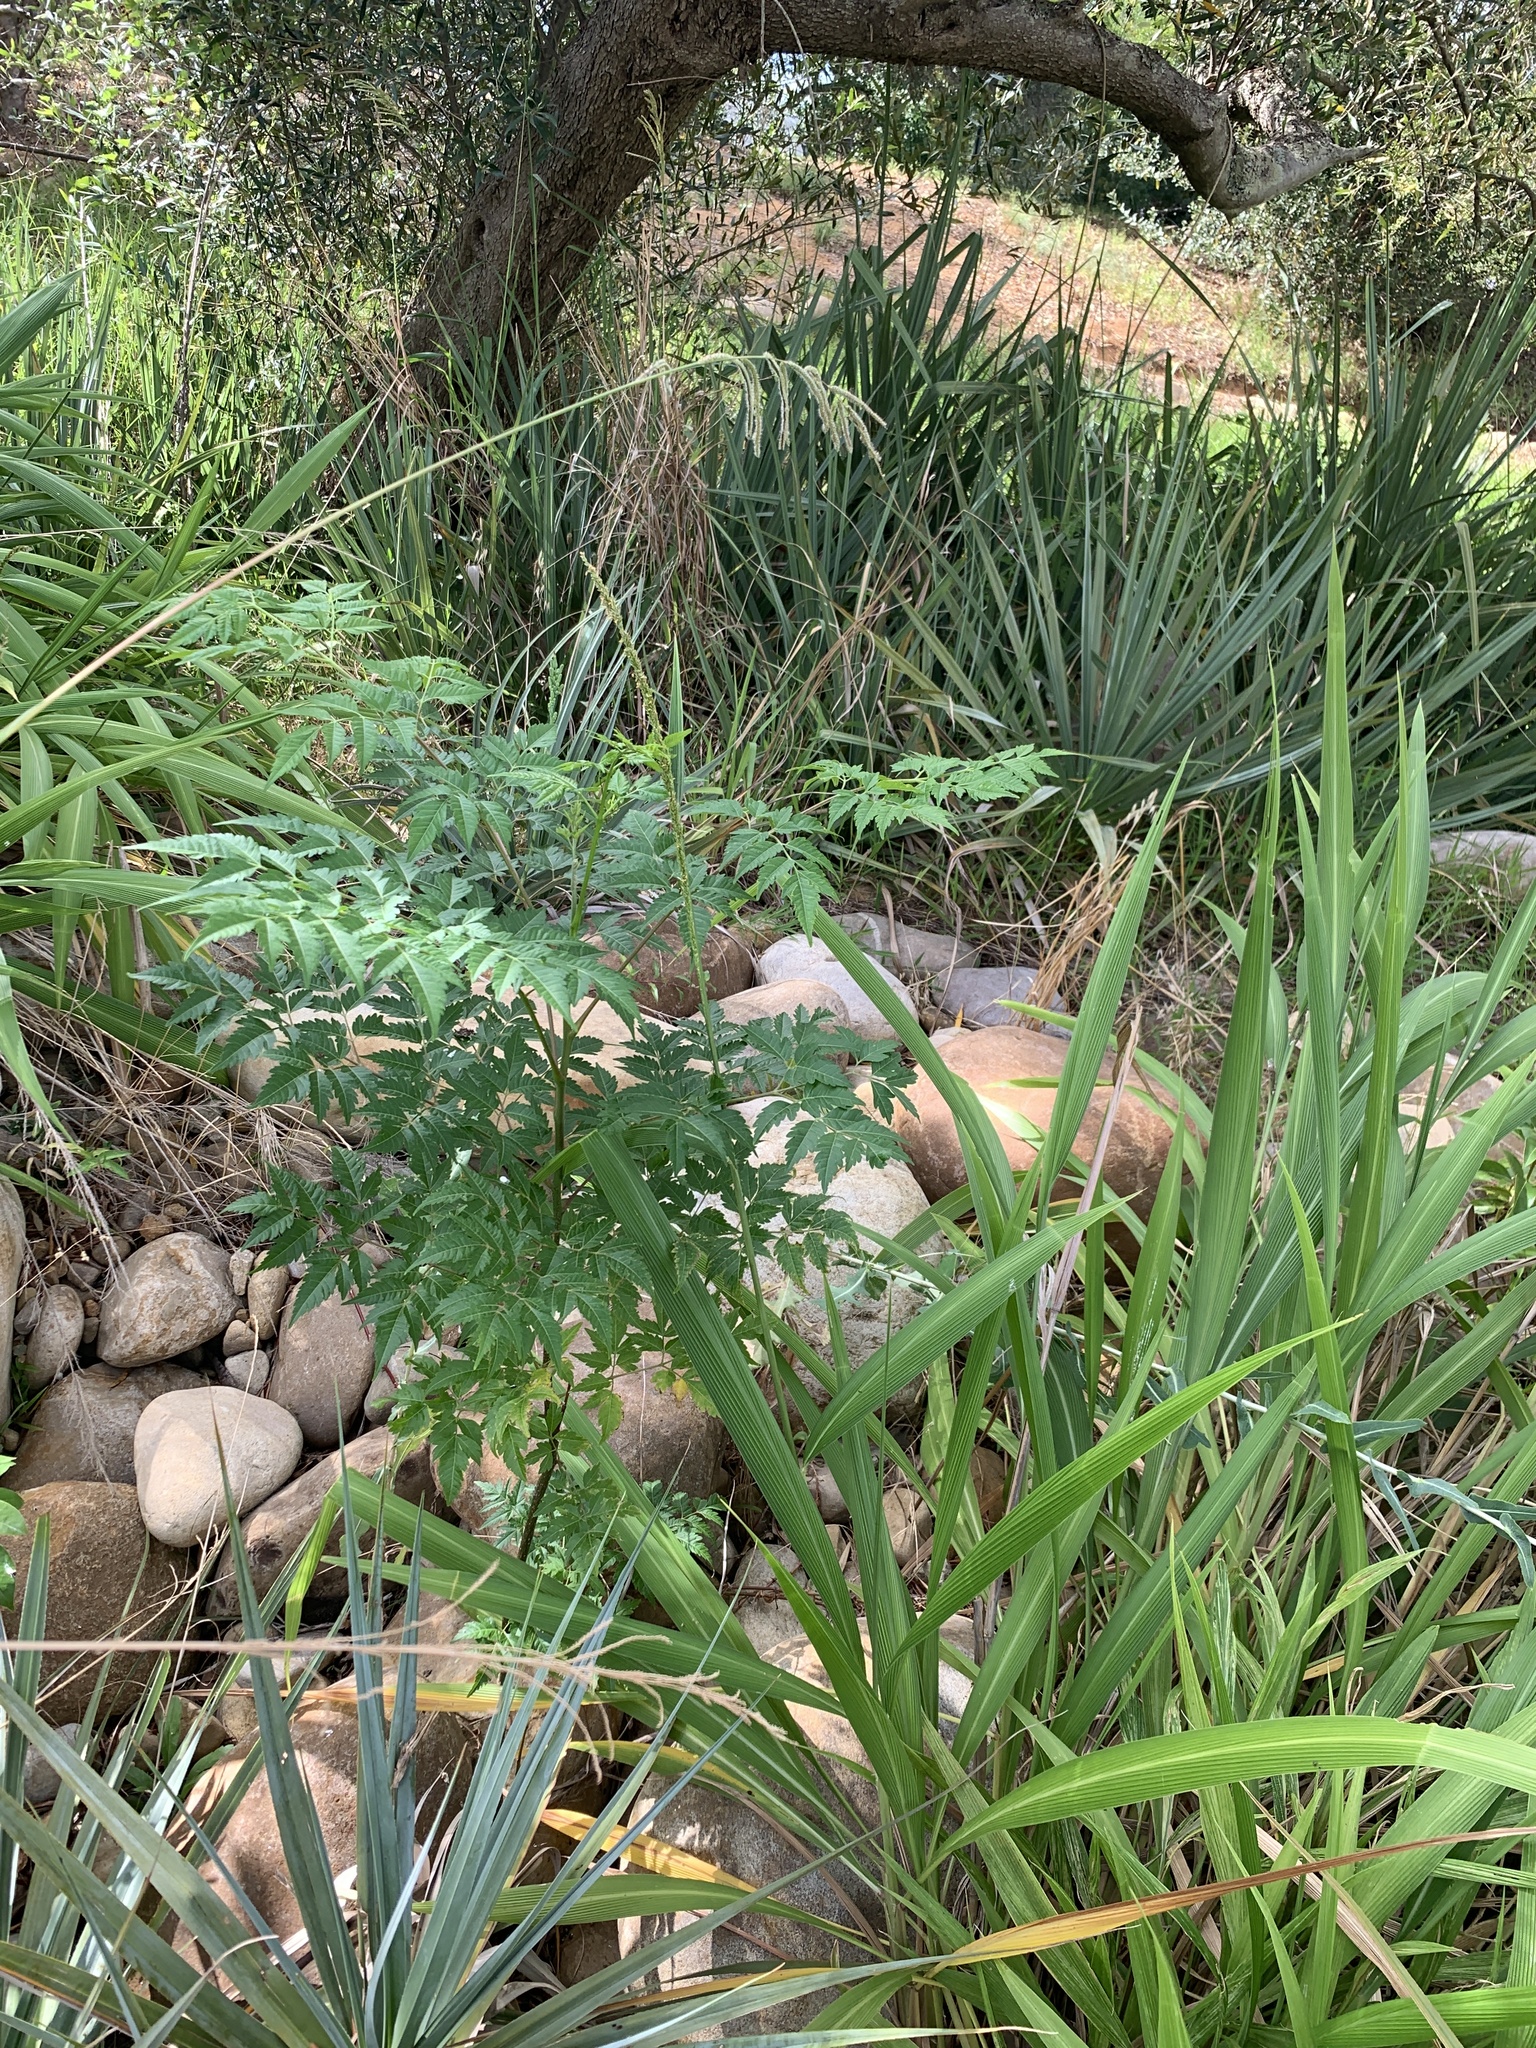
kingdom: Plantae
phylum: Tracheophyta
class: Magnoliopsida
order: Sapindales
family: Meliaceae
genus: Melia
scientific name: Melia azedarach
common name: Chinaberrytree
